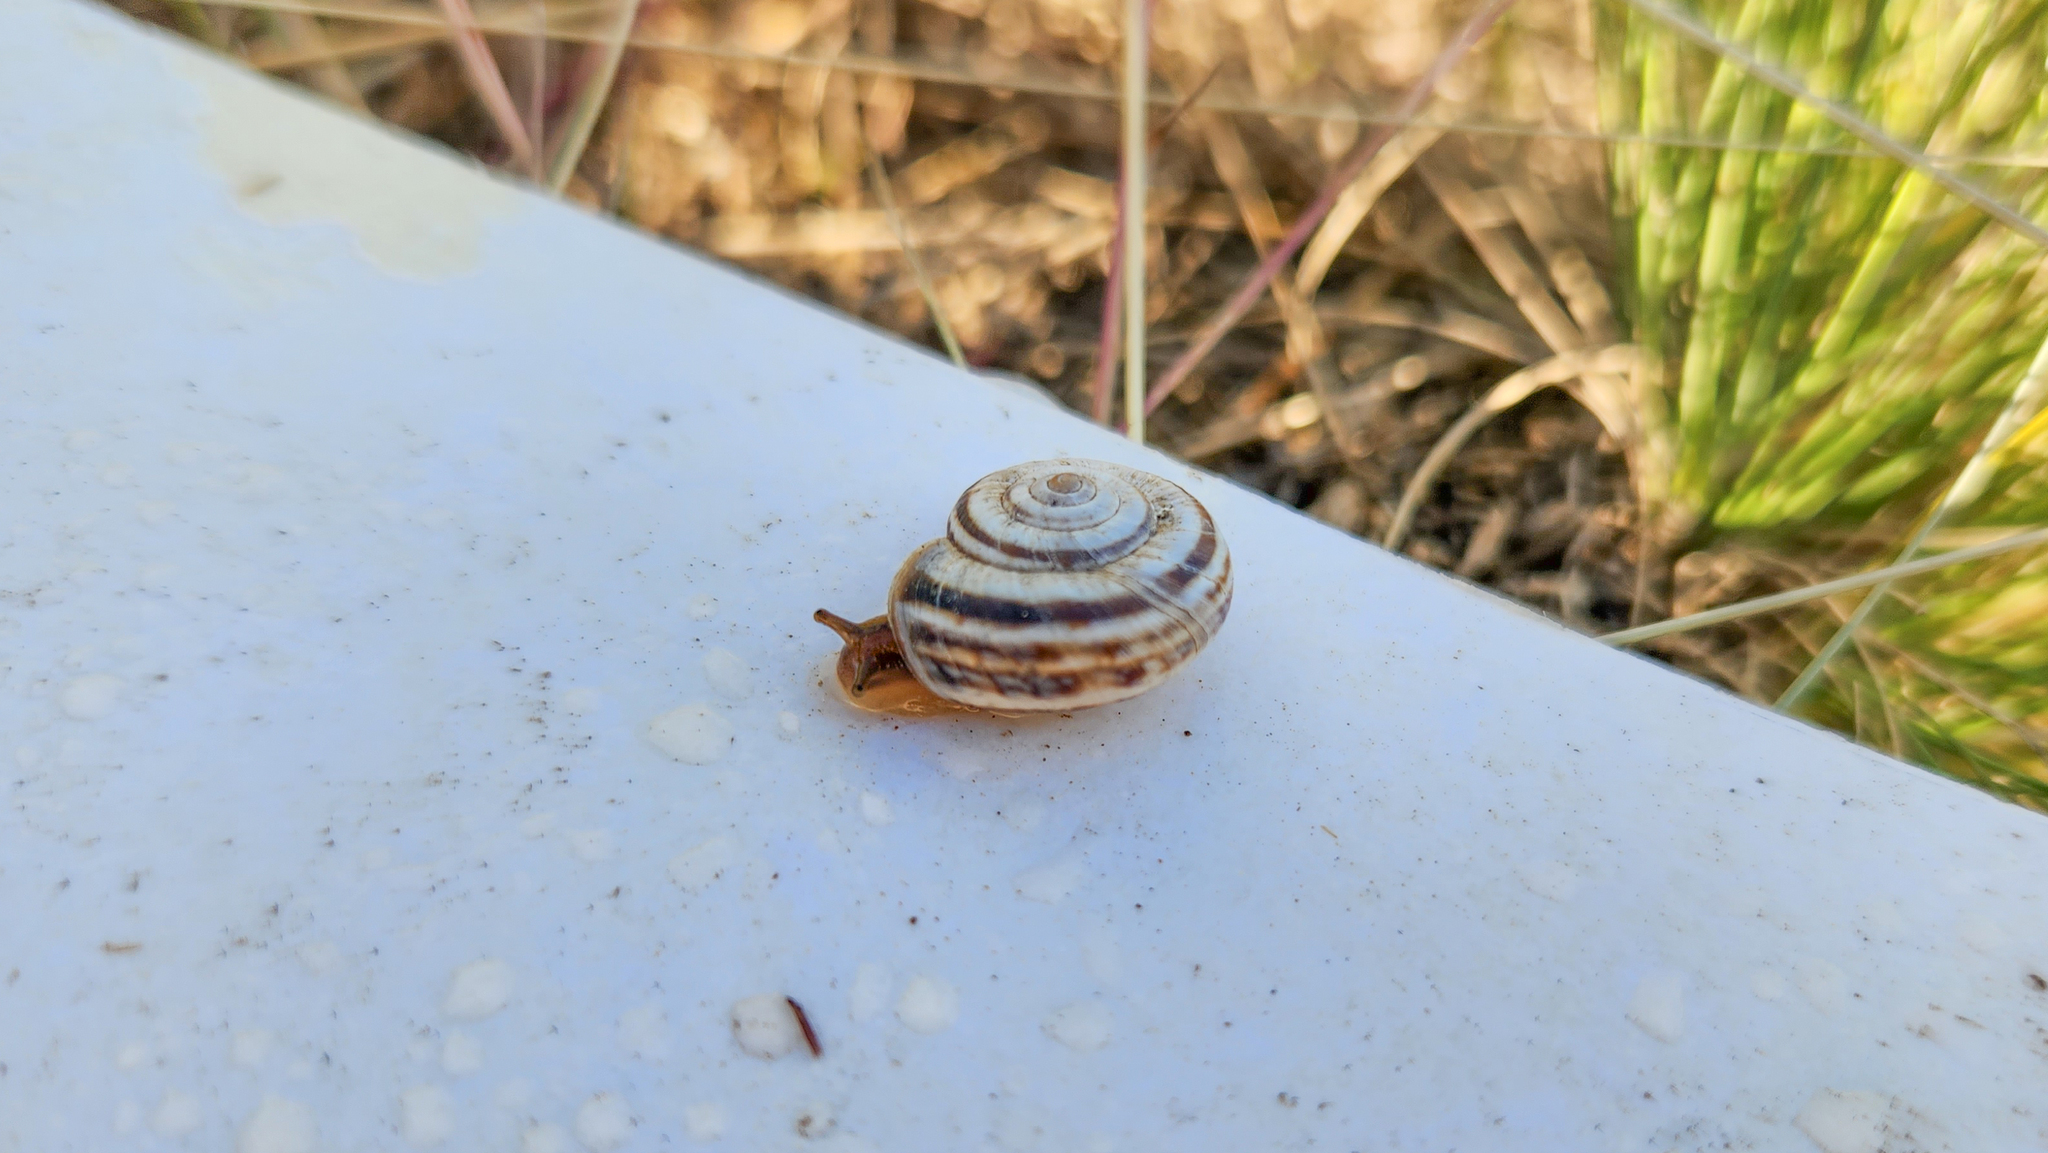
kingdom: Animalia
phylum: Mollusca
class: Gastropoda
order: Stylommatophora
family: Geomitridae
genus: Xerolenta
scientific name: Xerolenta obvia
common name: White heath snail
